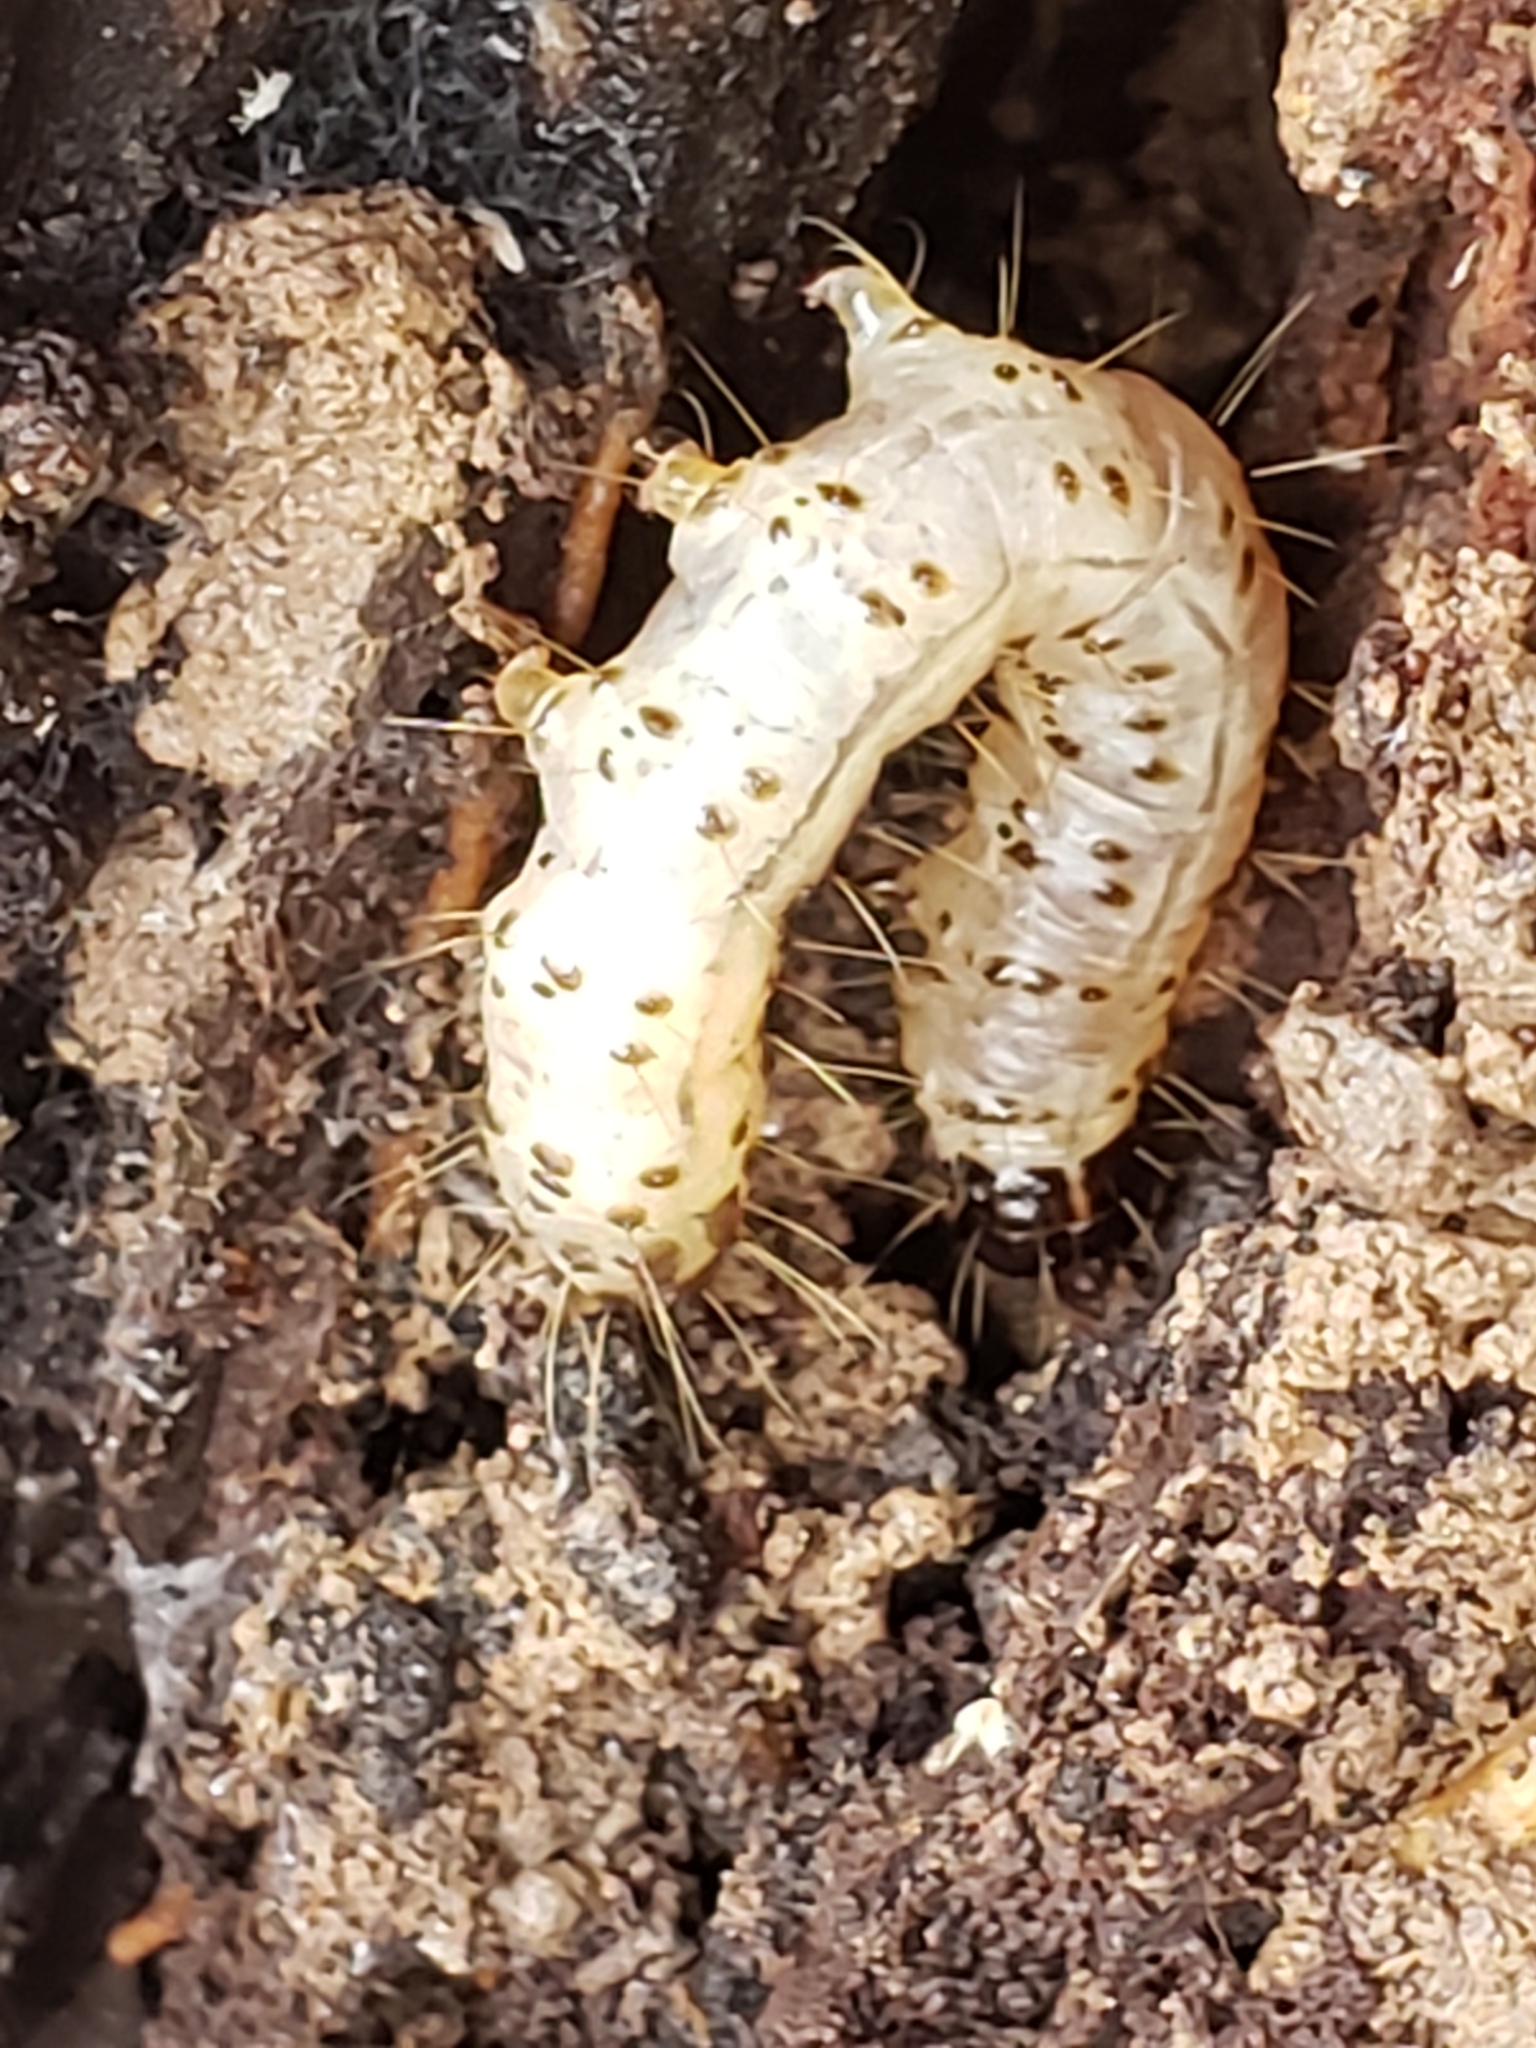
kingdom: Animalia
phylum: Arthropoda
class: Insecta
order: Lepidoptera
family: Erebidae
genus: Scolecocampa
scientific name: Scolecocampa liburna
